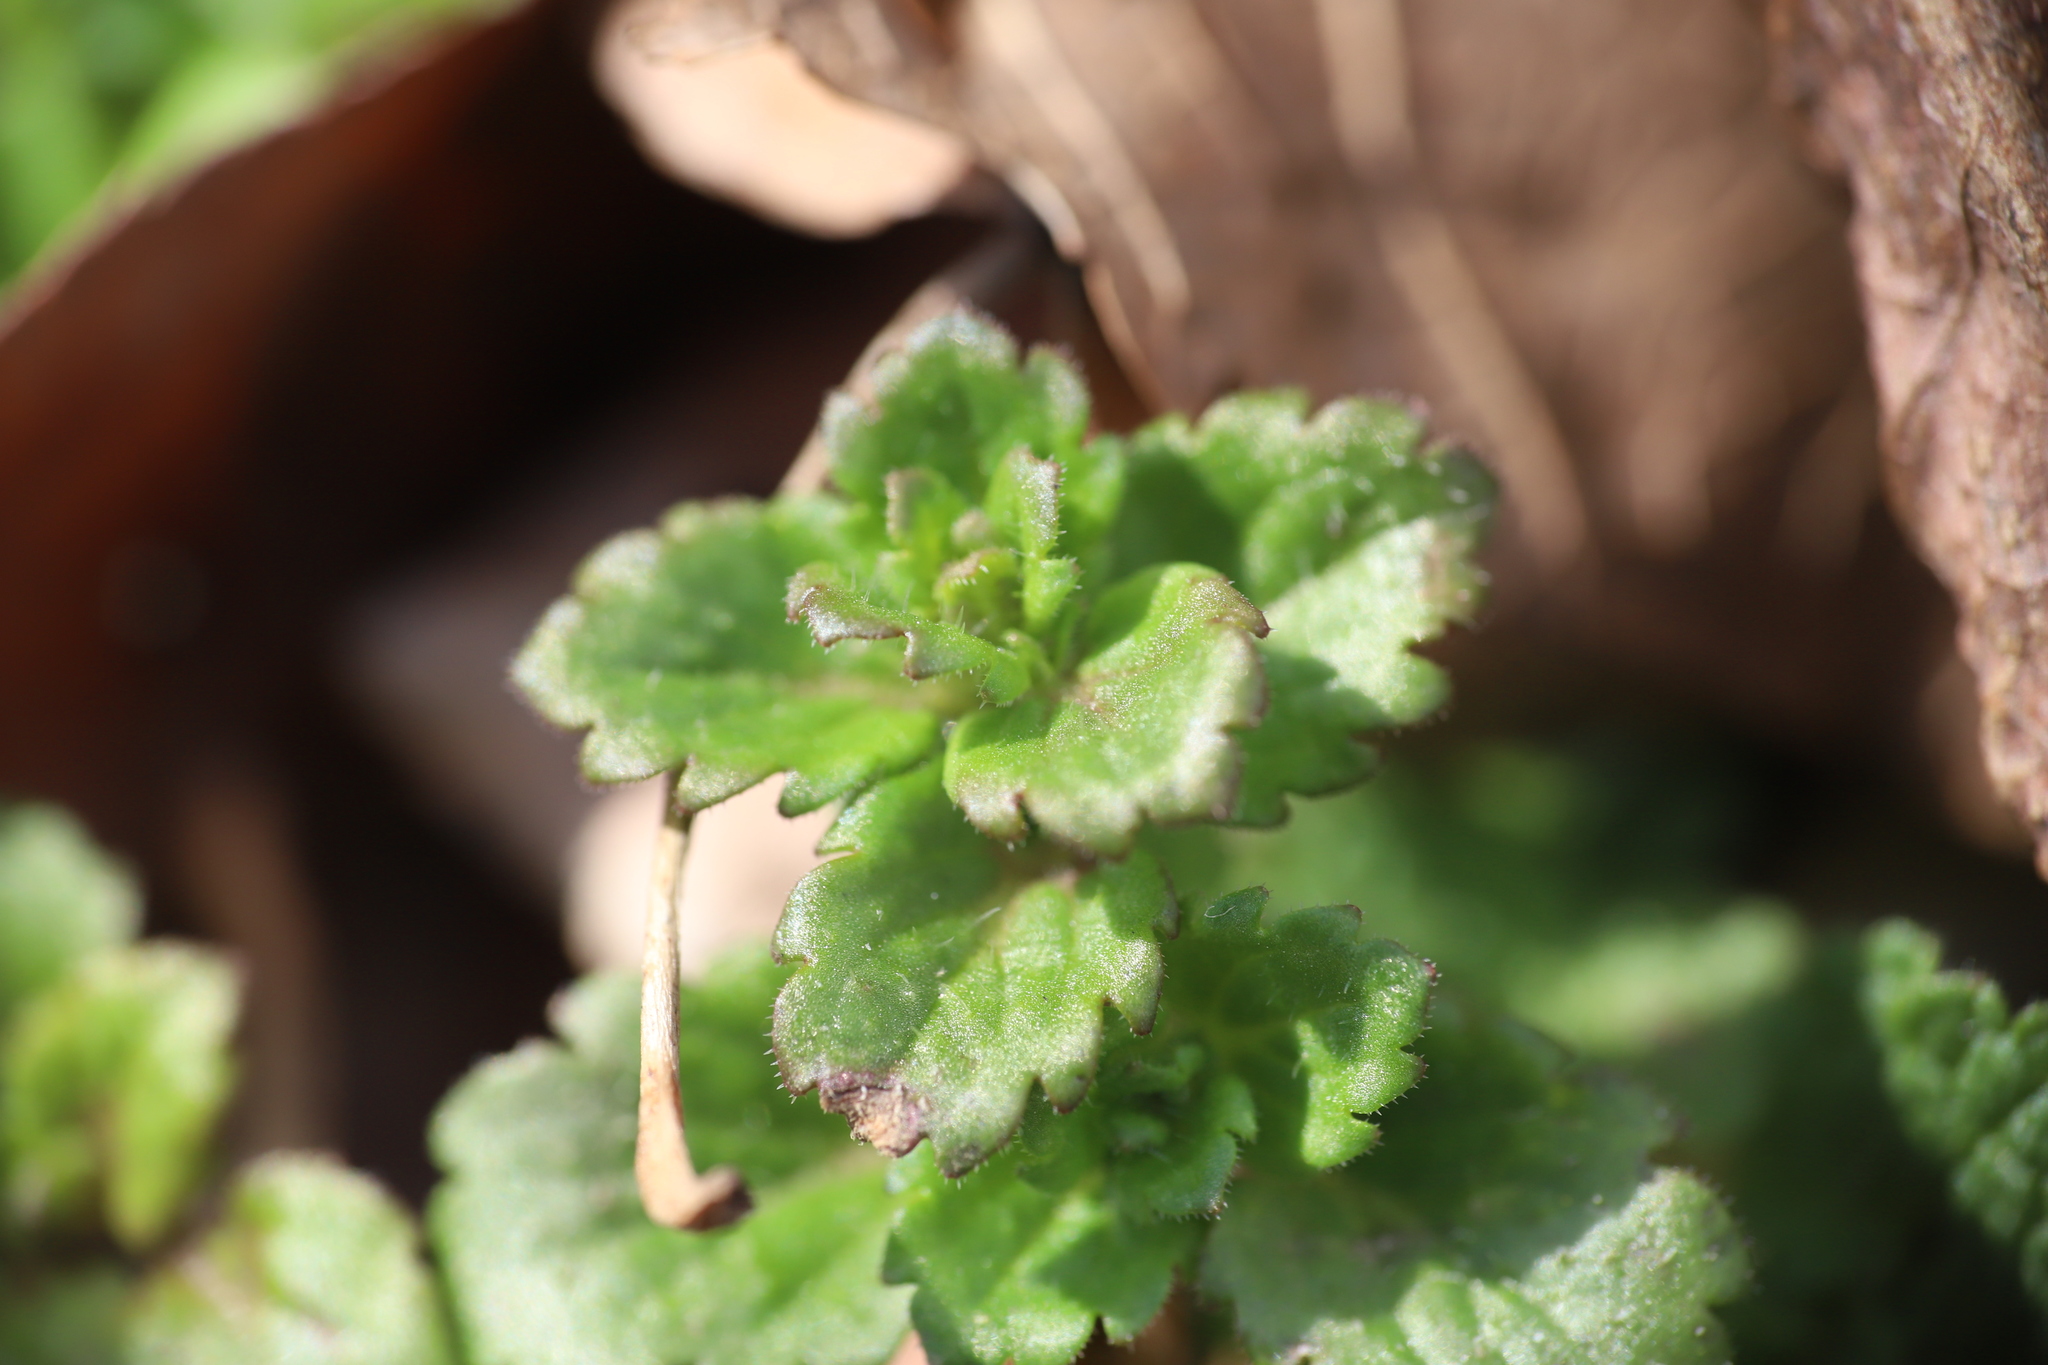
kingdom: Plantae
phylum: Tracheophyta
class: Magnoliopsida
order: Lamiales
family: Plantaginaceae
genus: Veronica
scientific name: Veronica persica
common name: Common field-speedwell
